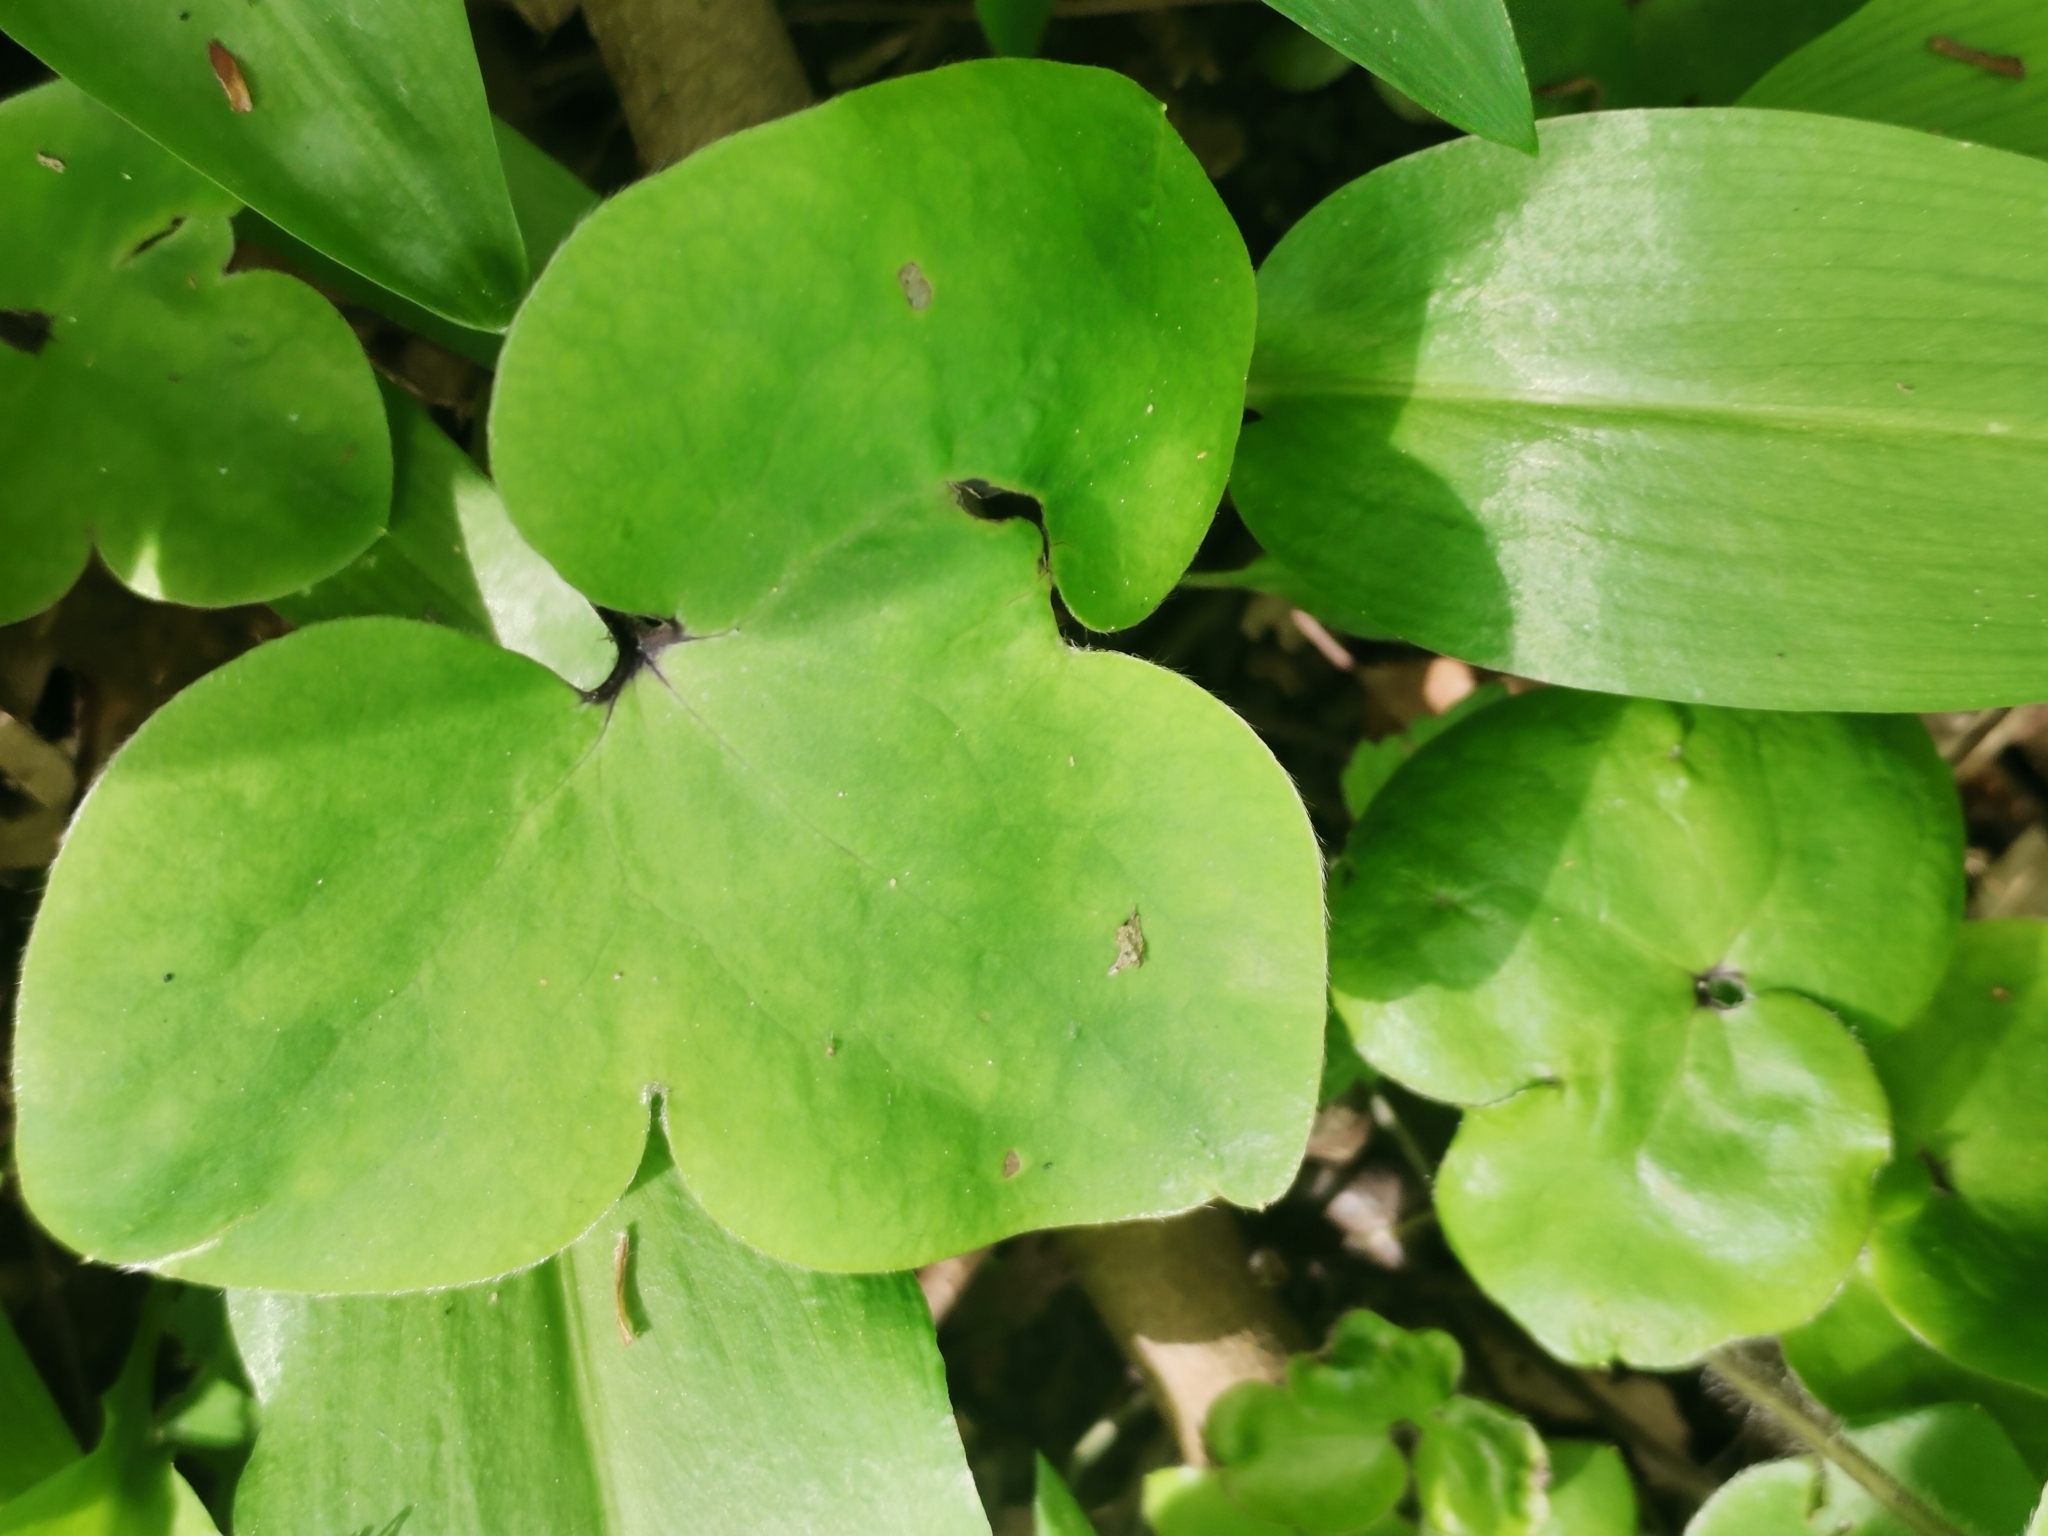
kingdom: Plantae
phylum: Tracheophyta
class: Magnoliopsida
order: Ranunculales
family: Ranunculaceae
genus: Hepatica
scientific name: Hepatica nobilis
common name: Liverleaf
